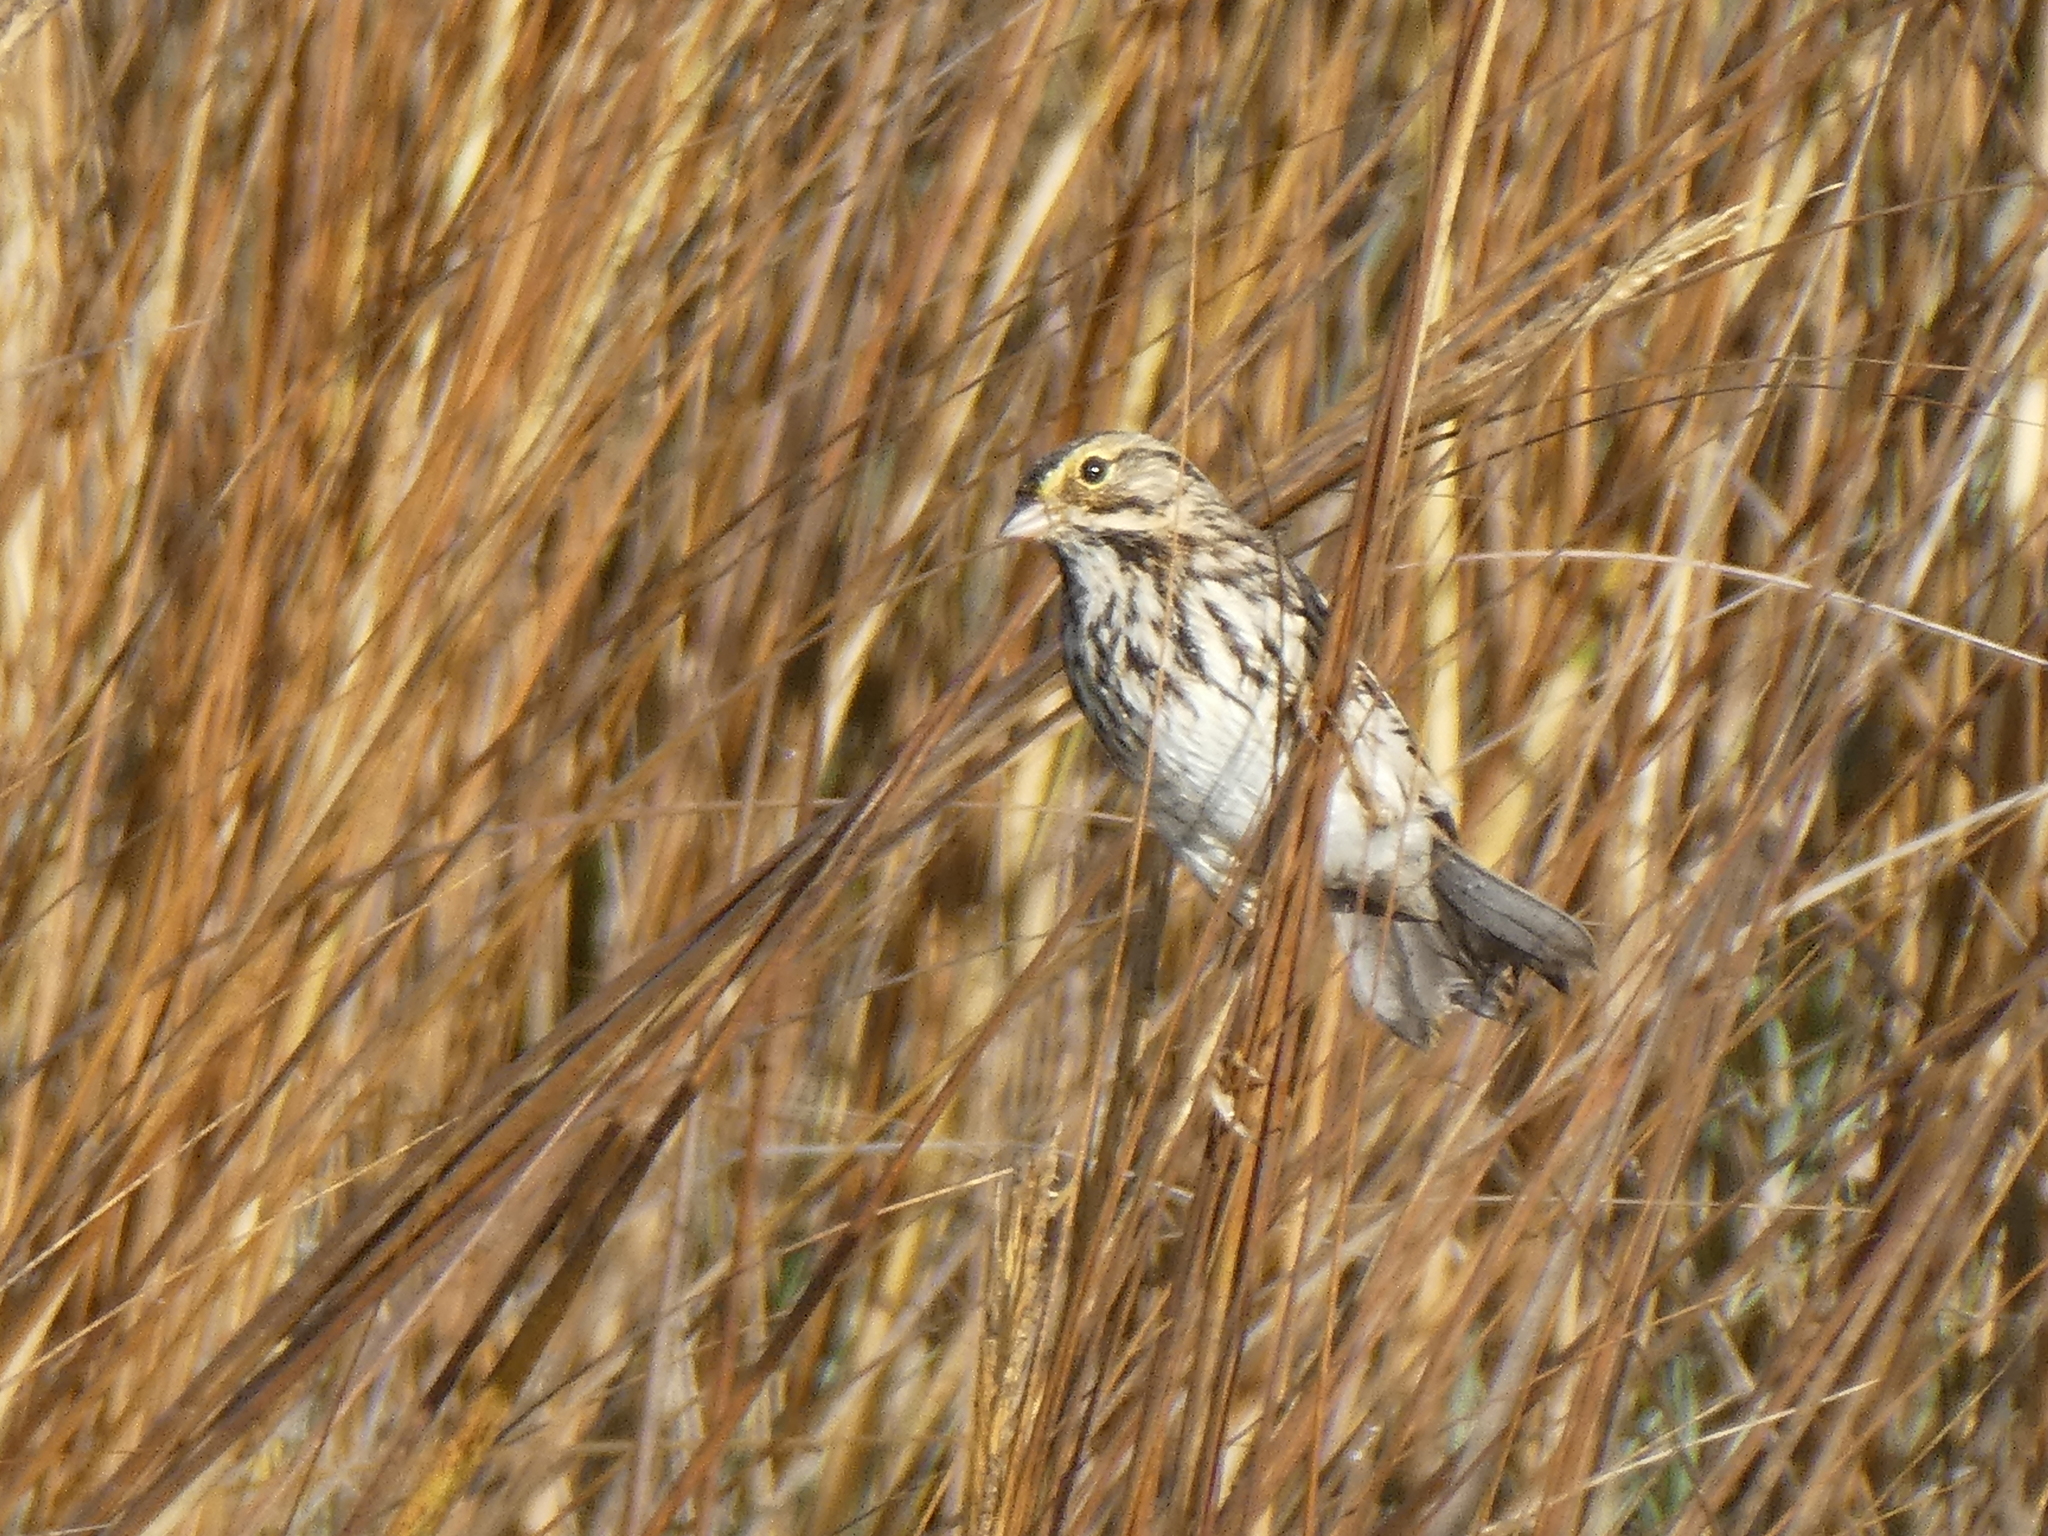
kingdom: Animalia
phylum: Chordata
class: Aves
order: Passeriformes
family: Passerellidae
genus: Passerculus
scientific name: Passerculus sandwichensis
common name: Savannah sparrow
